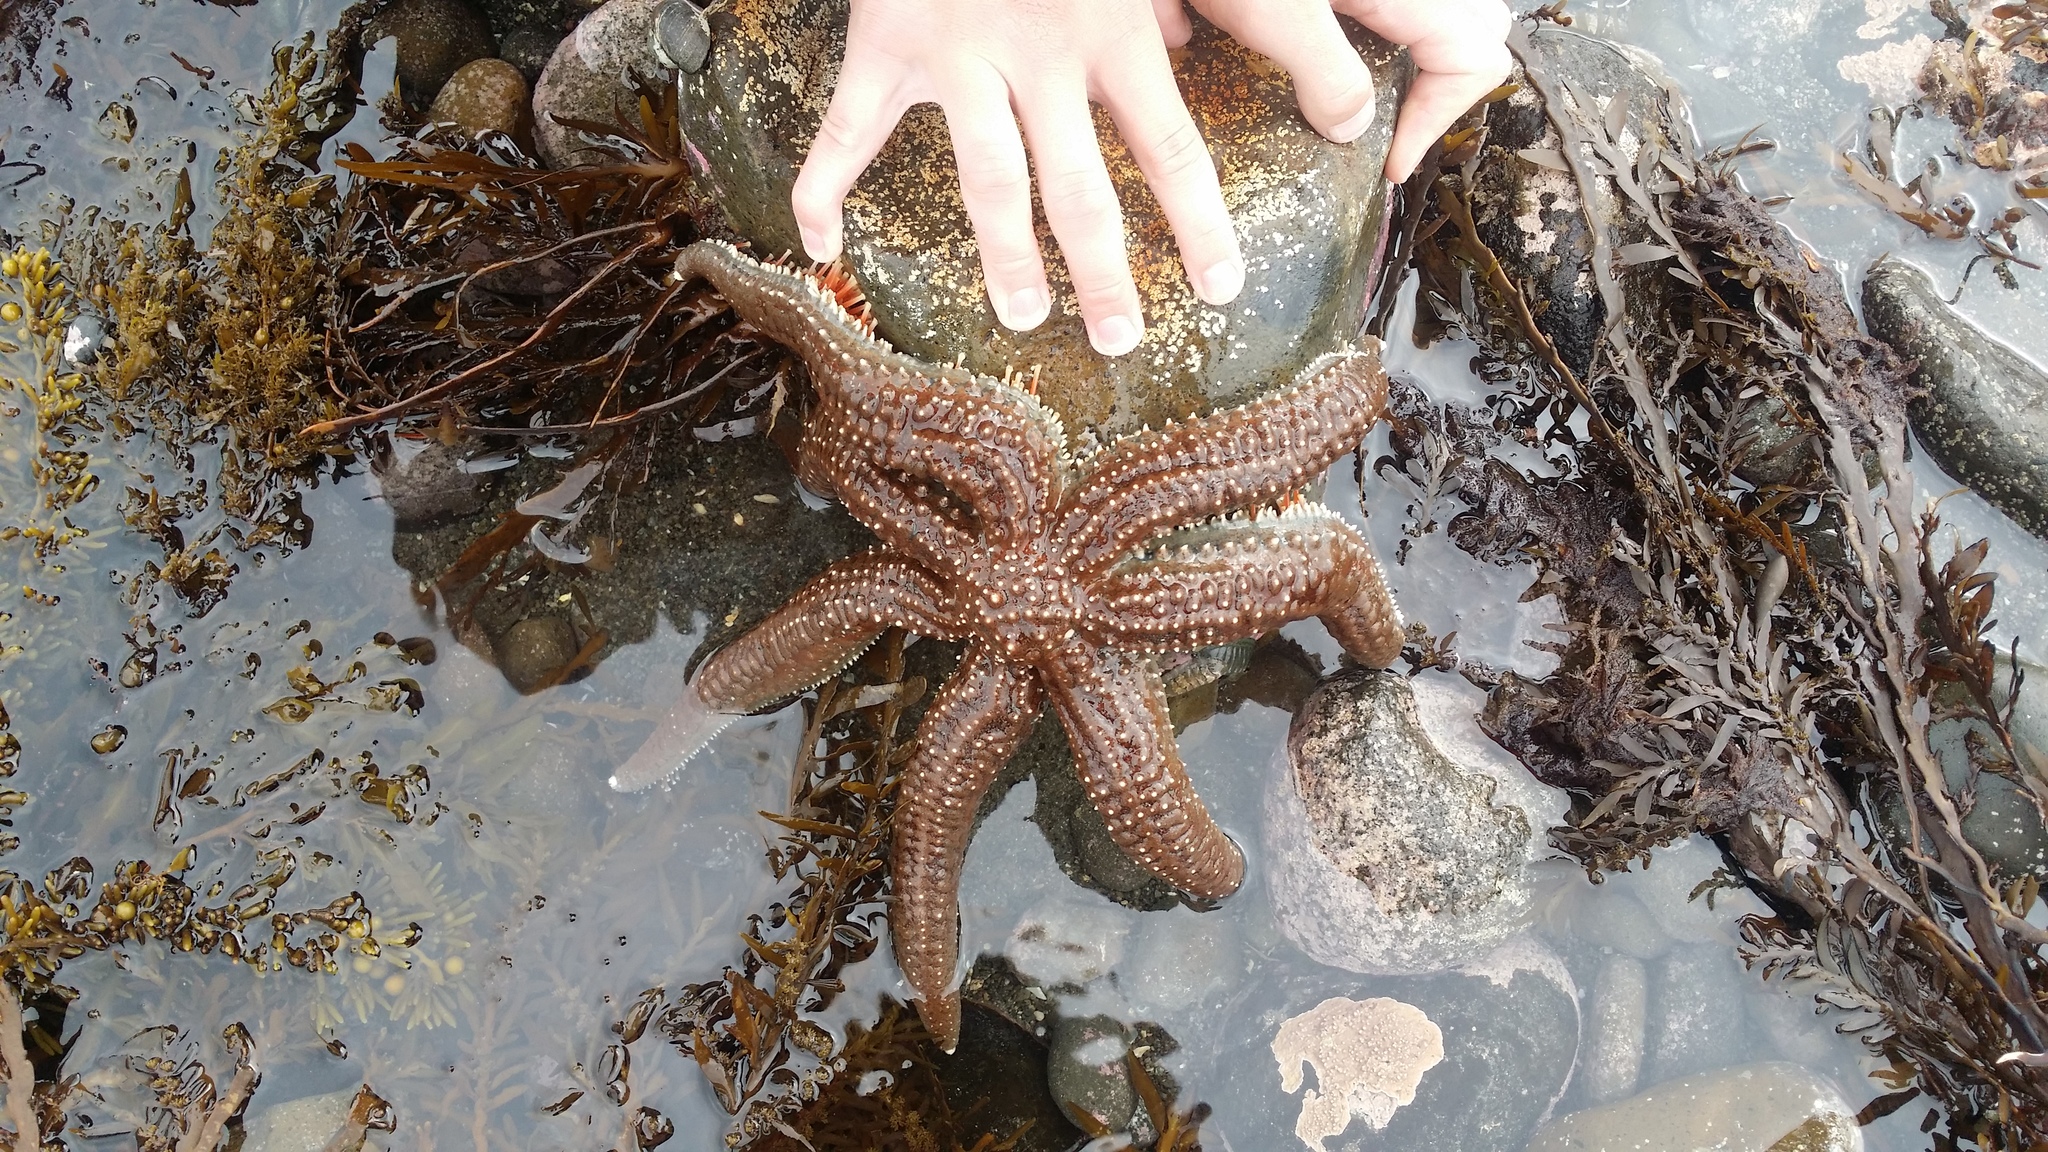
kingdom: Animalia
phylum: Echinodermata
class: Asteroidea
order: Forcipulatida
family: Asteriidae
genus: Astrostole
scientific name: Astrostole scabra
